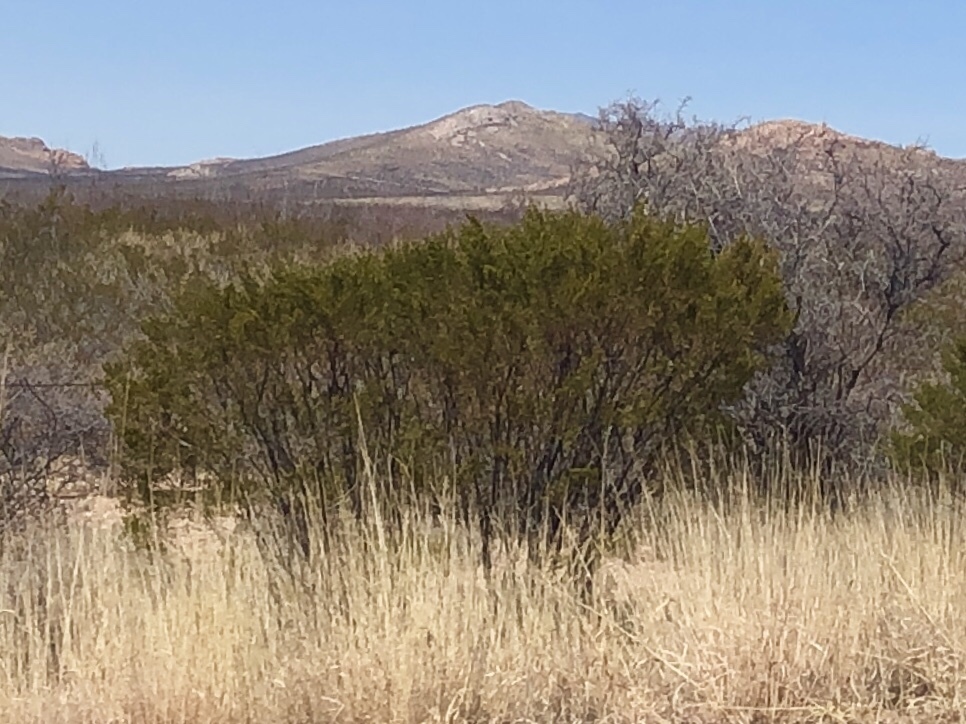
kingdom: Plantae
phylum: Tracheophyta
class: Magnoliopsida
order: Zygophyllales
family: Zygophyllaceae
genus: Larrea
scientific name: Larrea tridentata
